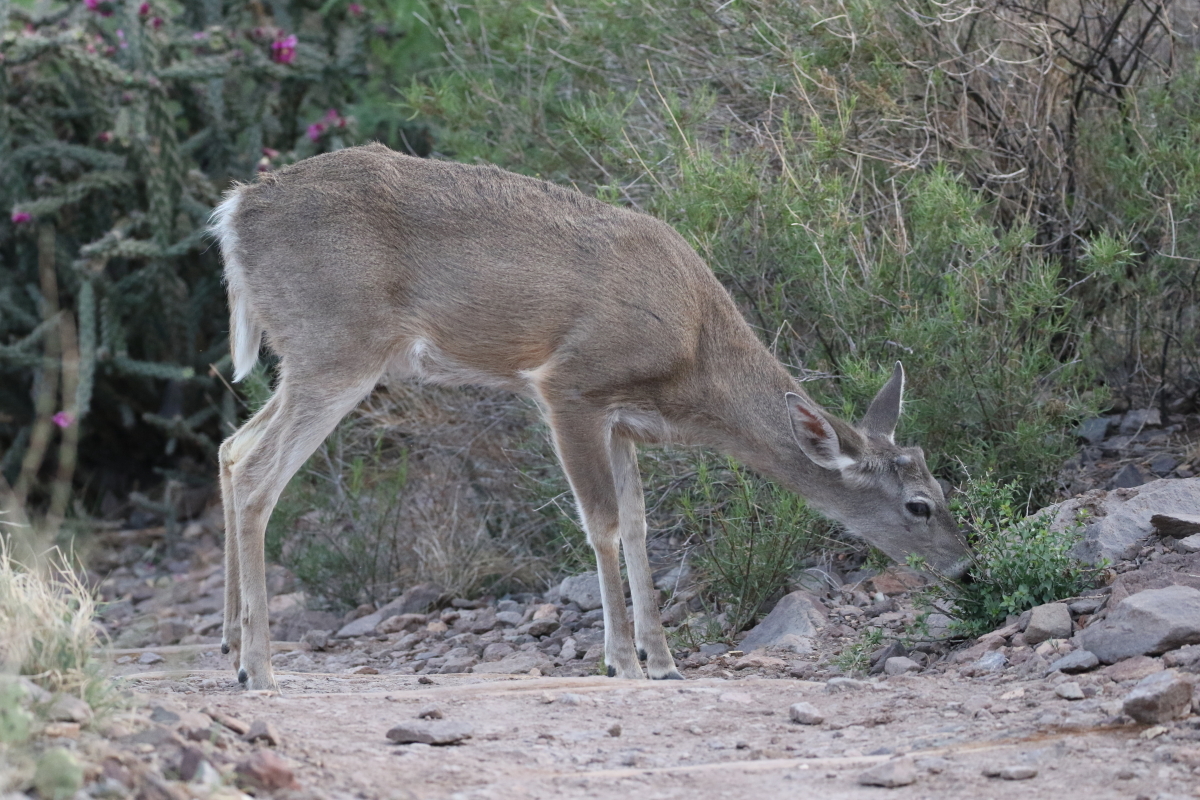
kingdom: Animalia
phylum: Chordata
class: Mammalia
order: Artiodactyla
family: Cervidae
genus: Odocoileus
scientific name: Odocoileus virginianus
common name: White-tailed deer
